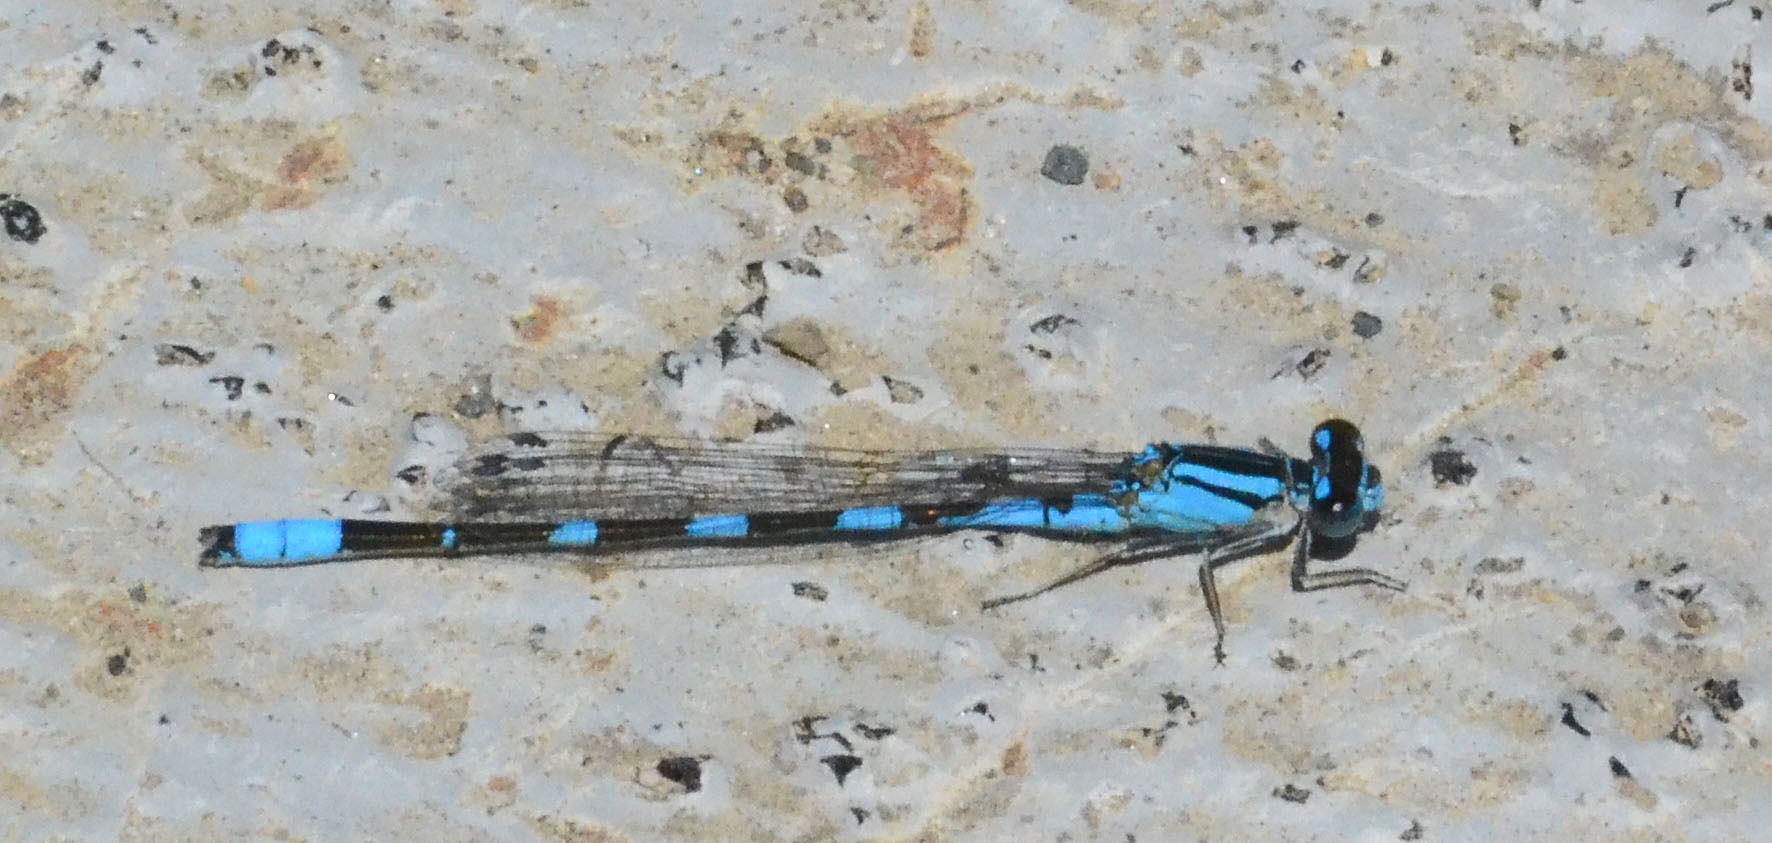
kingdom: Animalia
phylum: Arthropoda
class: Insecta
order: Odonata
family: Coenagrionidae
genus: Enallagma
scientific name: Enallagma carunculatum
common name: Tule bluet
